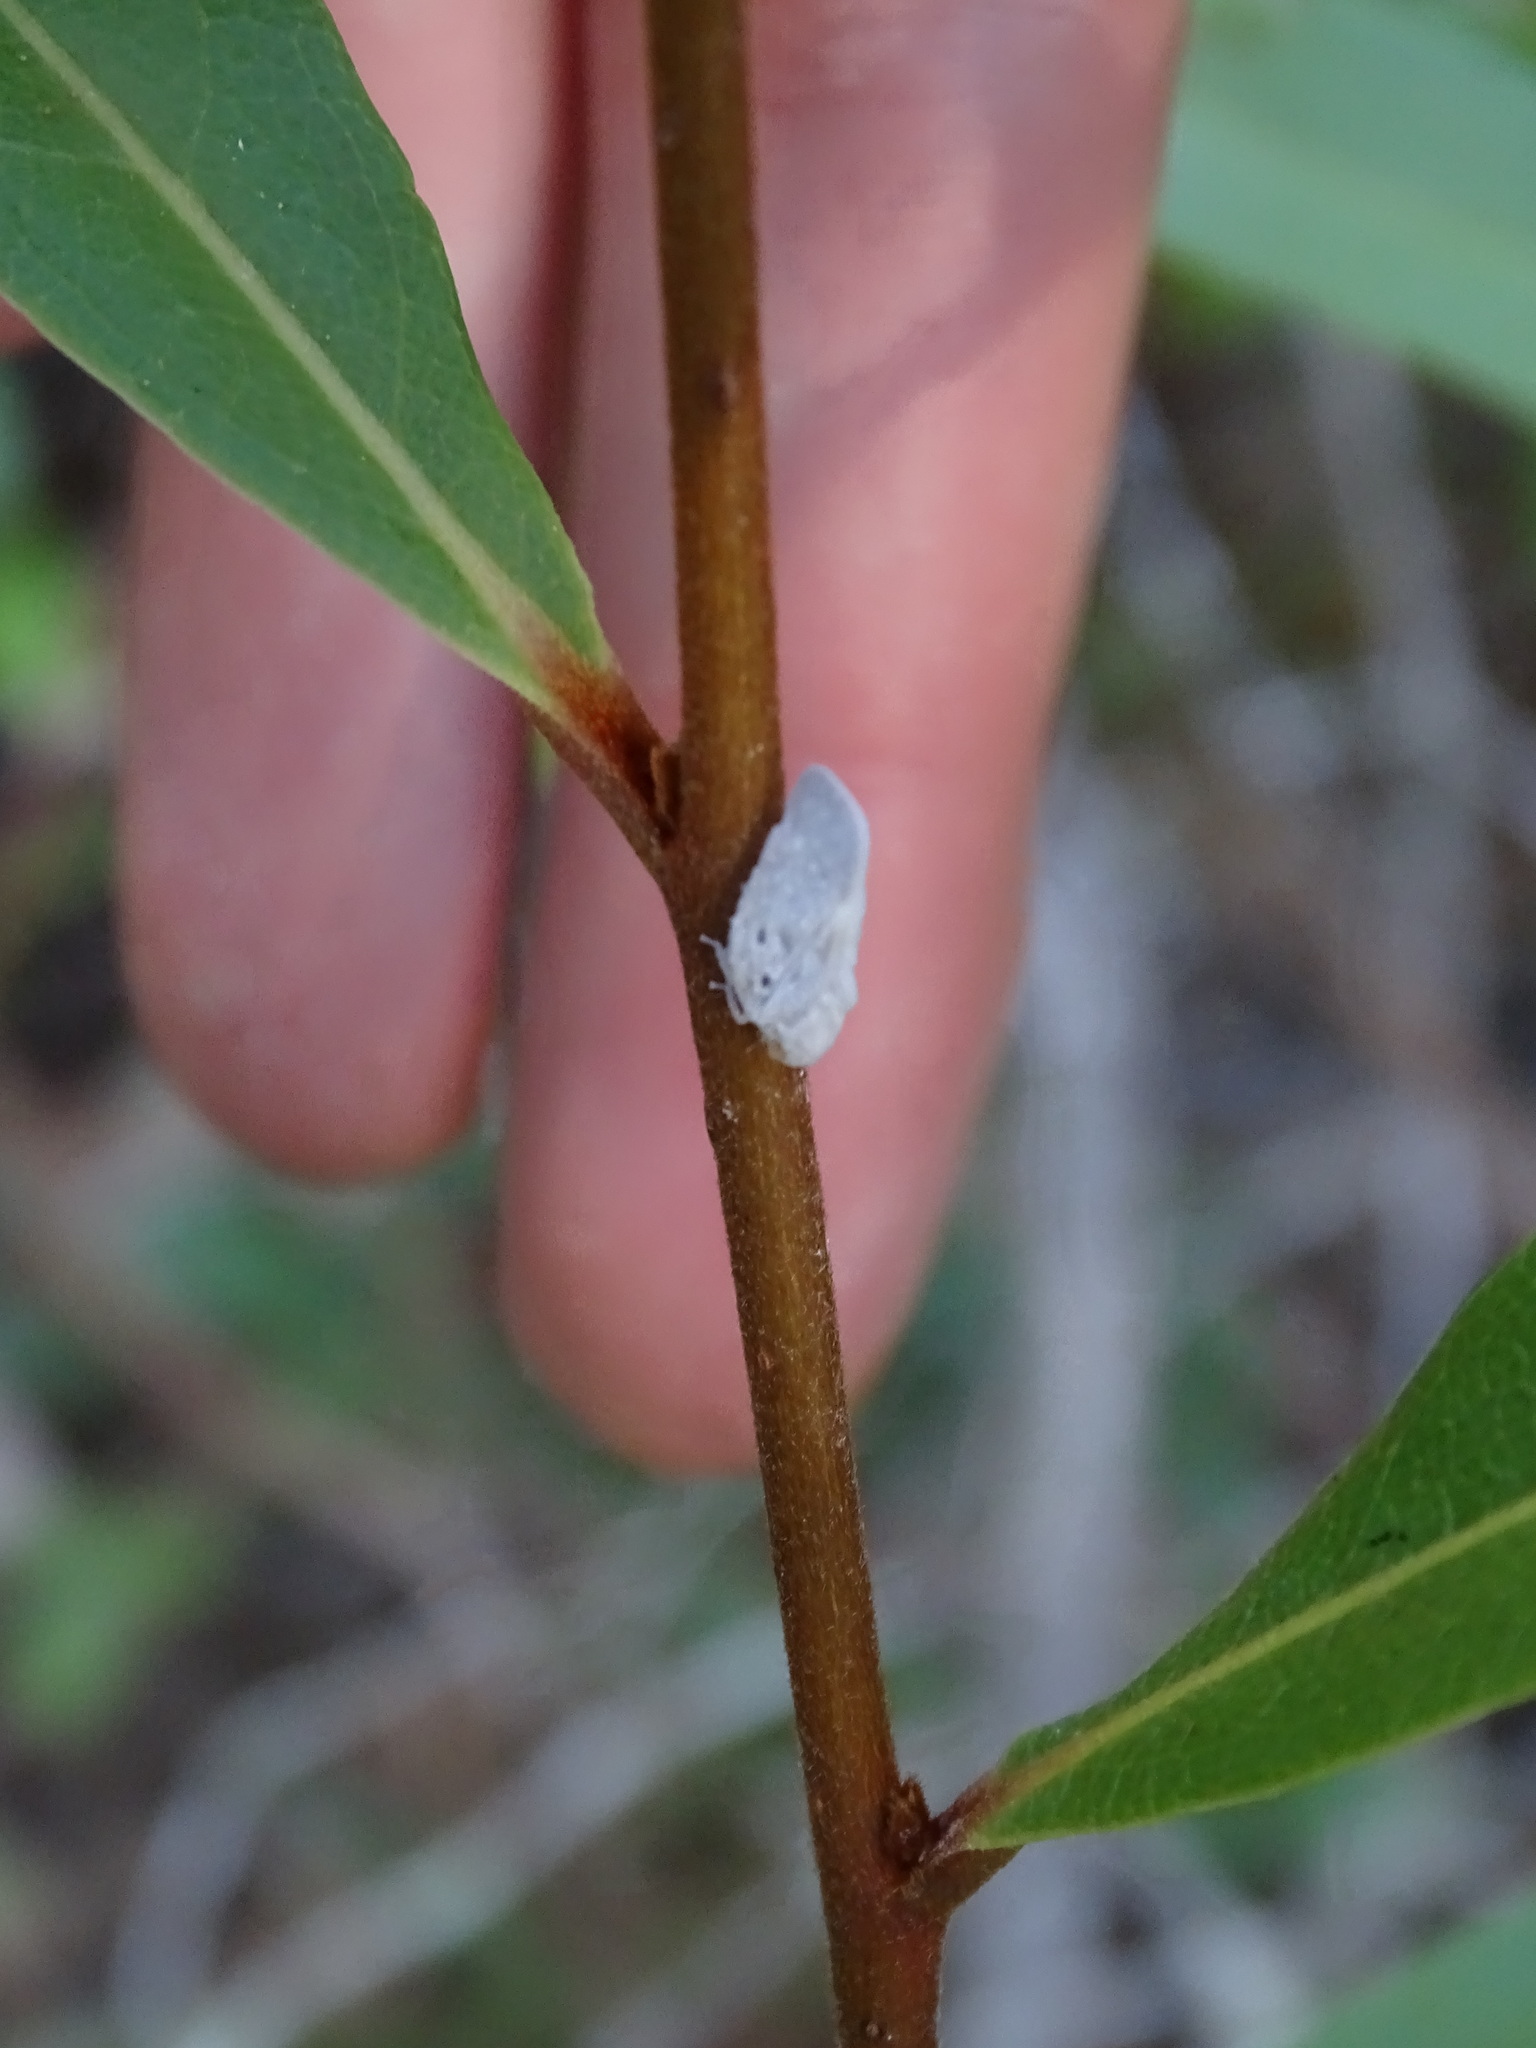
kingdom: Animalia
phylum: Arthropoda
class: Insecta
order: Hemiptera
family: Flatidae
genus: Metcalfa
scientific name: Metcalfa pruinosa
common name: Citrus flatid planthopper
